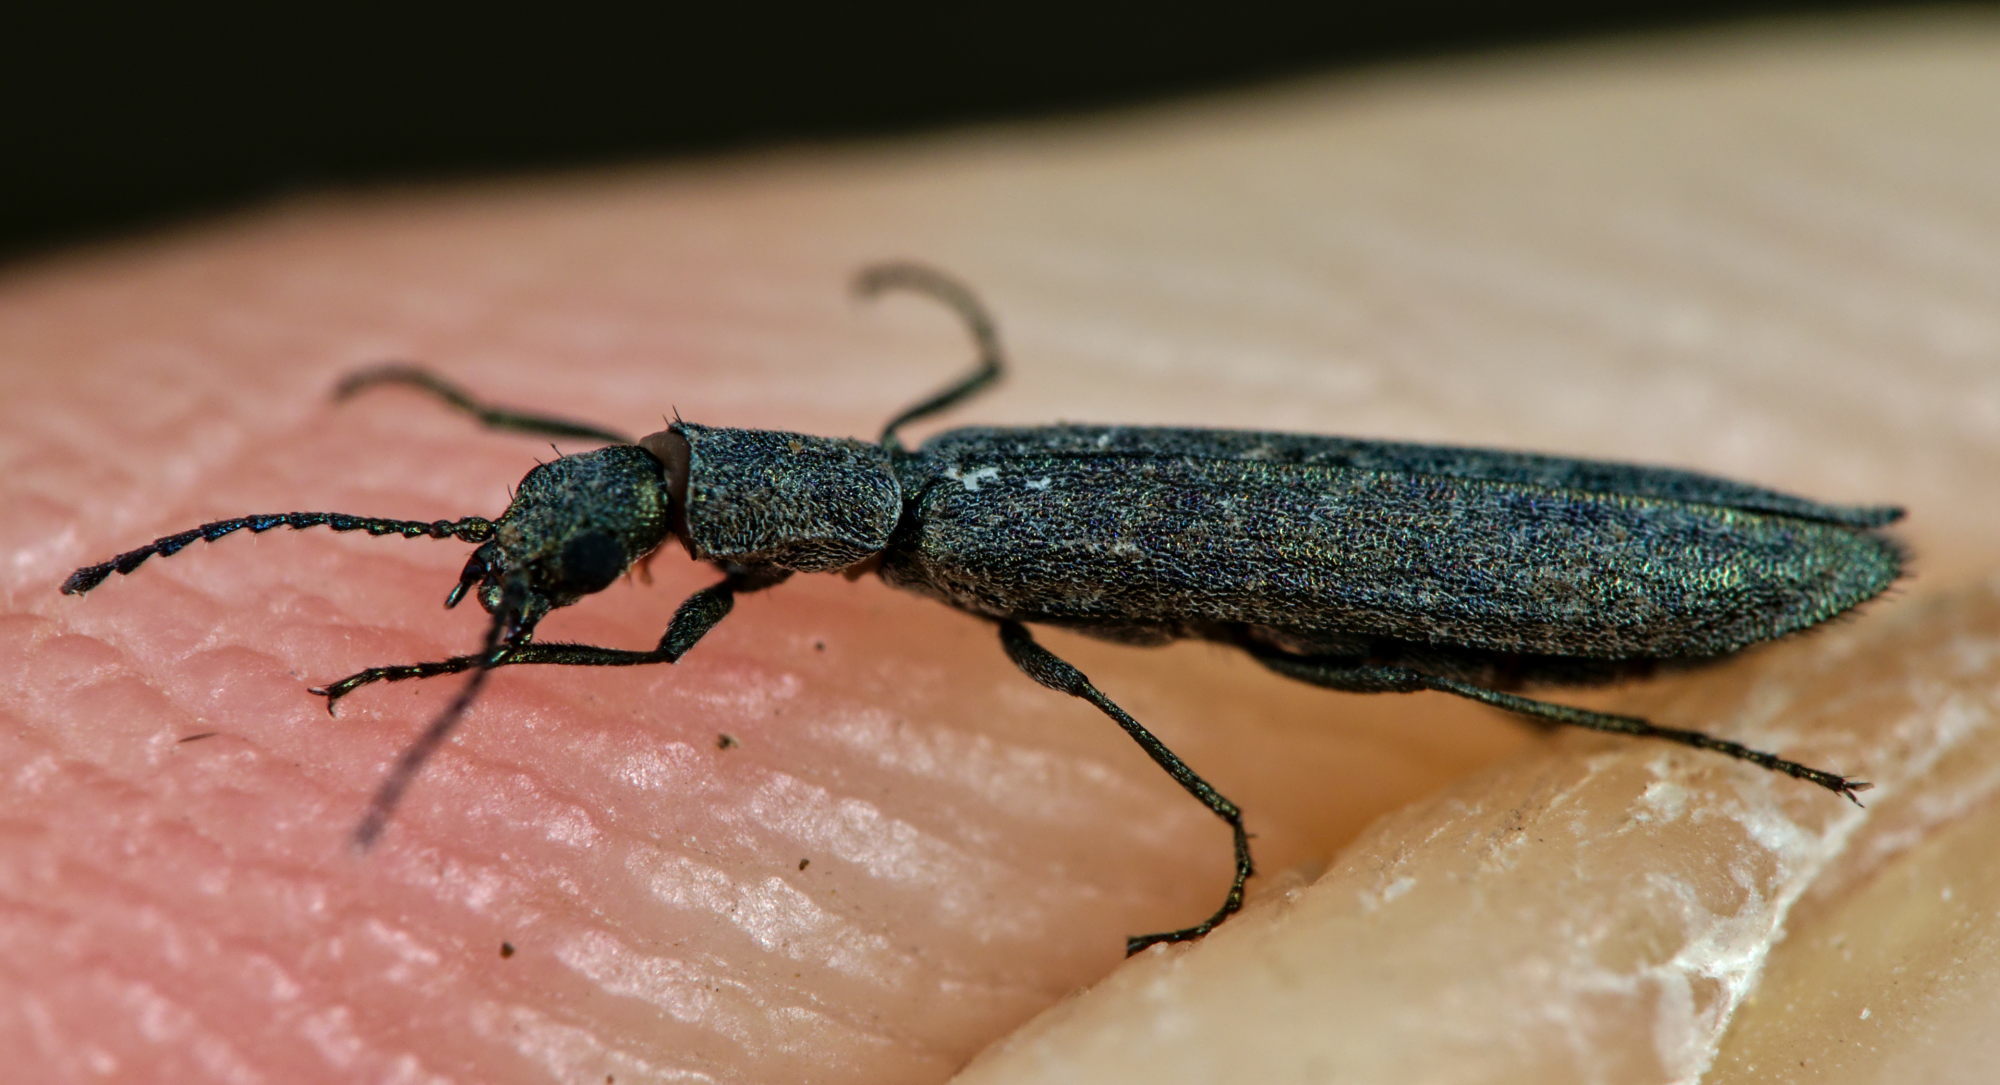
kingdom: Animalia
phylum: Arthropoda
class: Insecta
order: Coleoptera
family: Melyridae
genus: Dolichosoma
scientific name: Dolichosoma lineare
